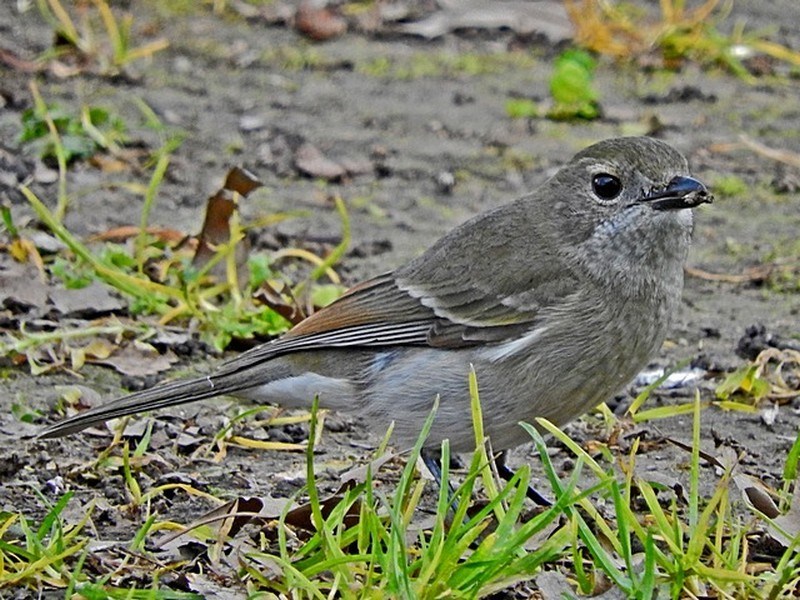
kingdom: Animalia
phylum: Chordata
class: Aves
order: Passeriformes
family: Pachycephalidae
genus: Pachycephala
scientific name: Pachycephala pectoralis
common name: Australian golden whistler
